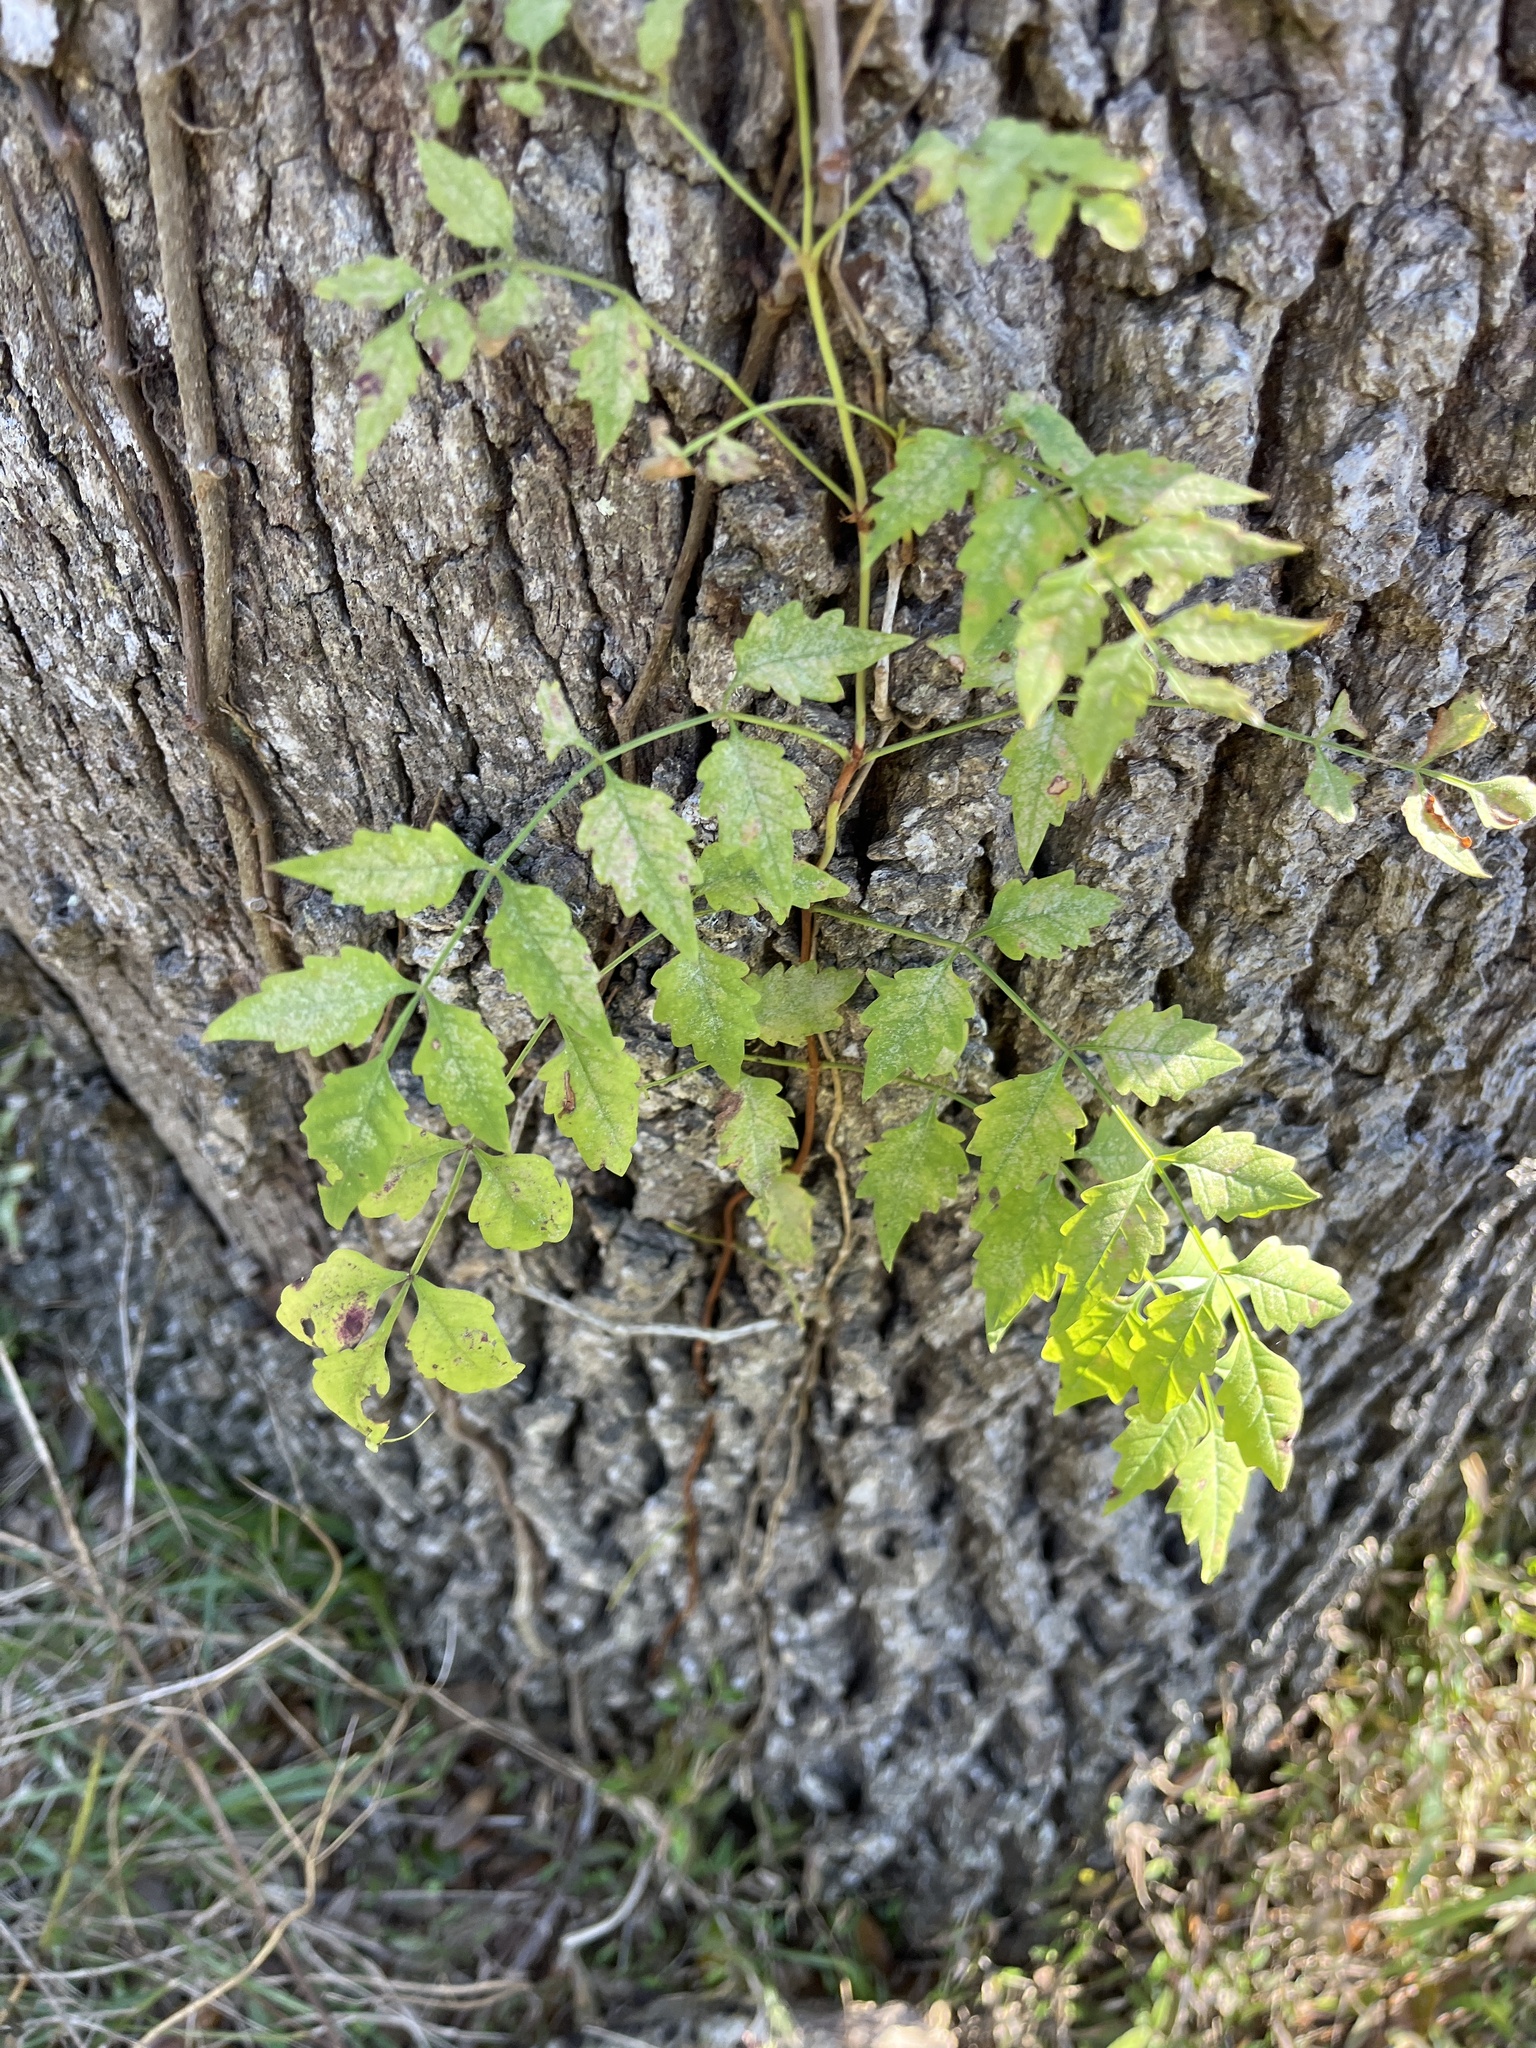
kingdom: Plantae
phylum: Tracheophyta
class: Magnoliopsida
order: Lamiales
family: Bignoniaceae
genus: Campsis
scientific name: Campsis radicans
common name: Trumpet-creeper
